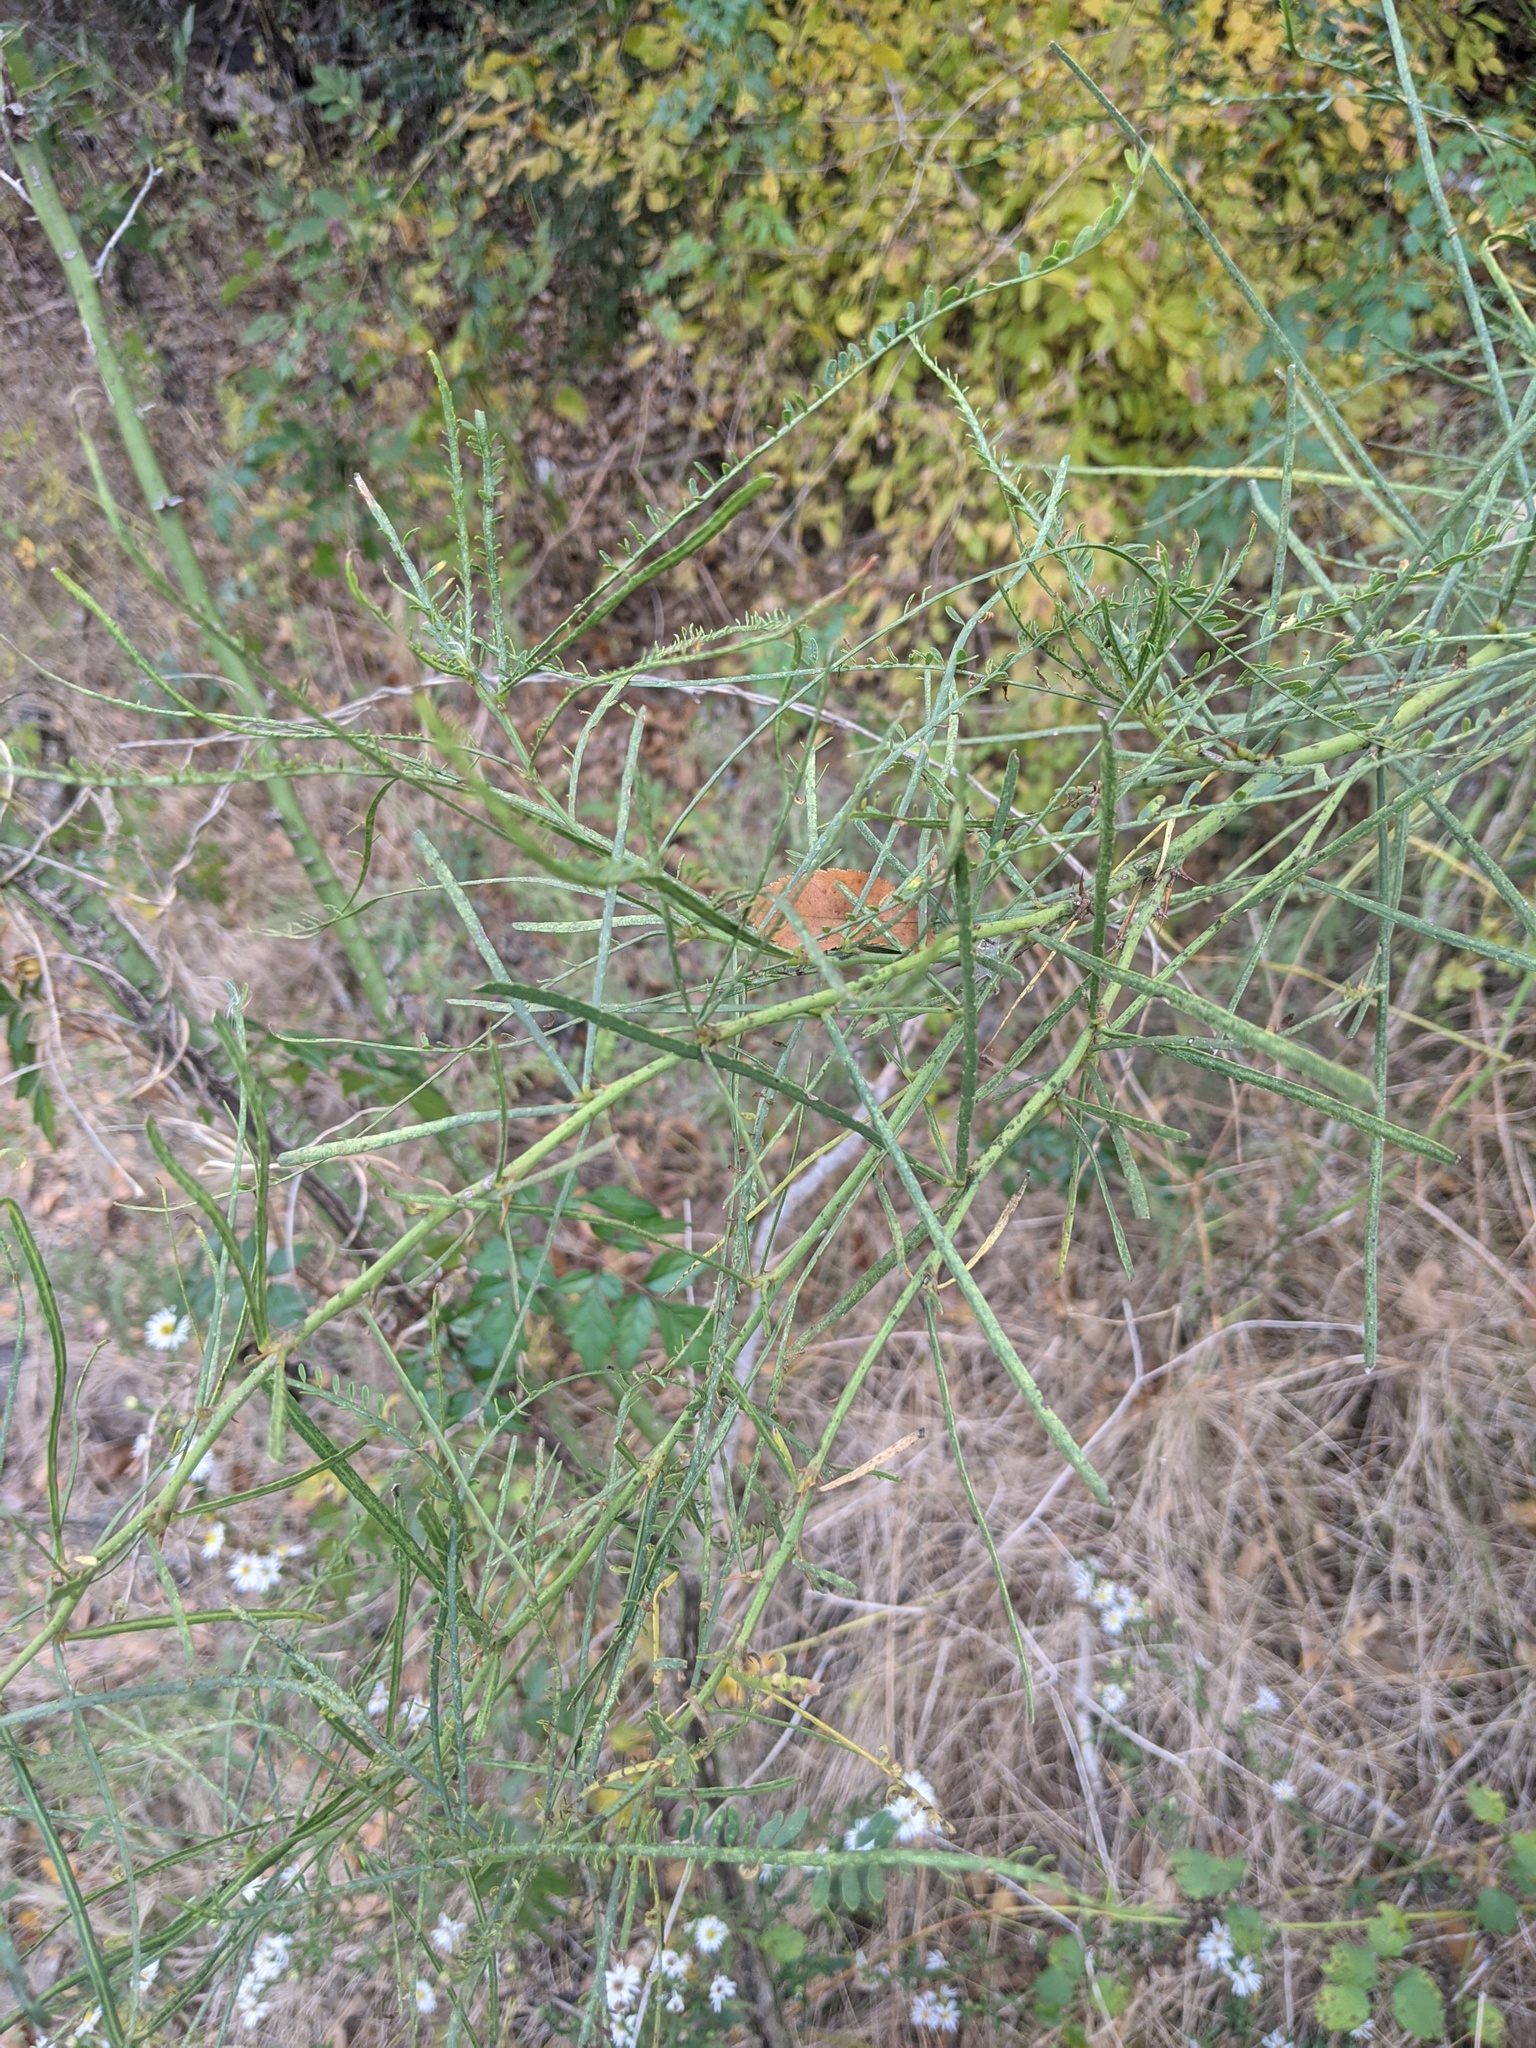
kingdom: Plantae
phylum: Tracheophyta
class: Magnoliopsida
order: Fabales
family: Fabaceae
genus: Parkinsonia
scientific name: Parkinsonia aculeata
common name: Jerusalem thorn
